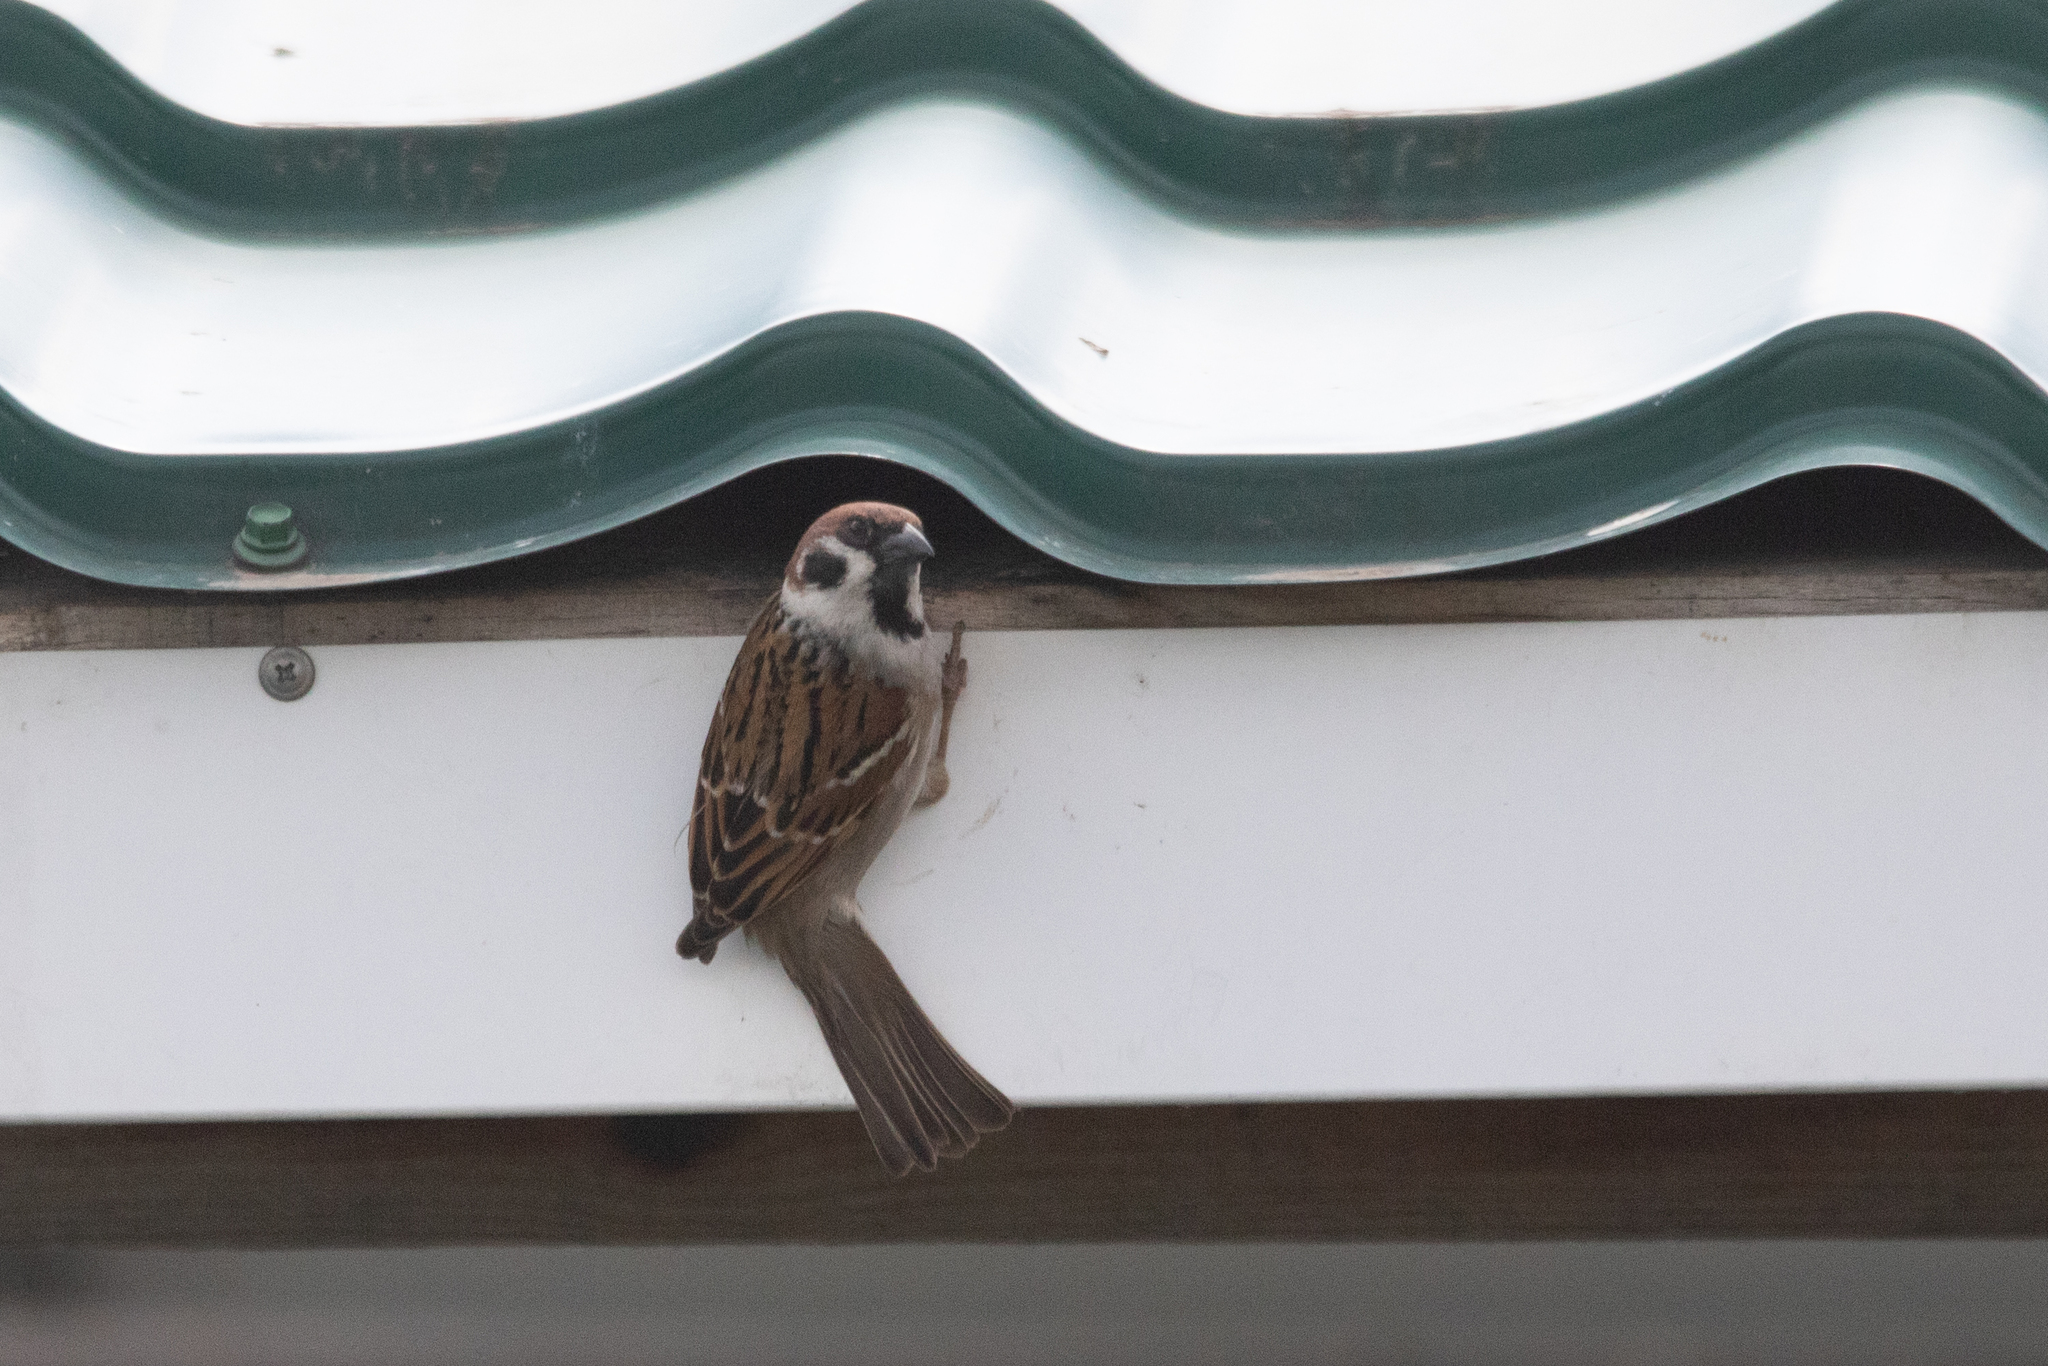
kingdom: Animalia
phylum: Chordata
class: Aves
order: Passeriformes
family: Passeridae
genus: Passer
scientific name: Passer montanus
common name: Eurasian tree sparrow
